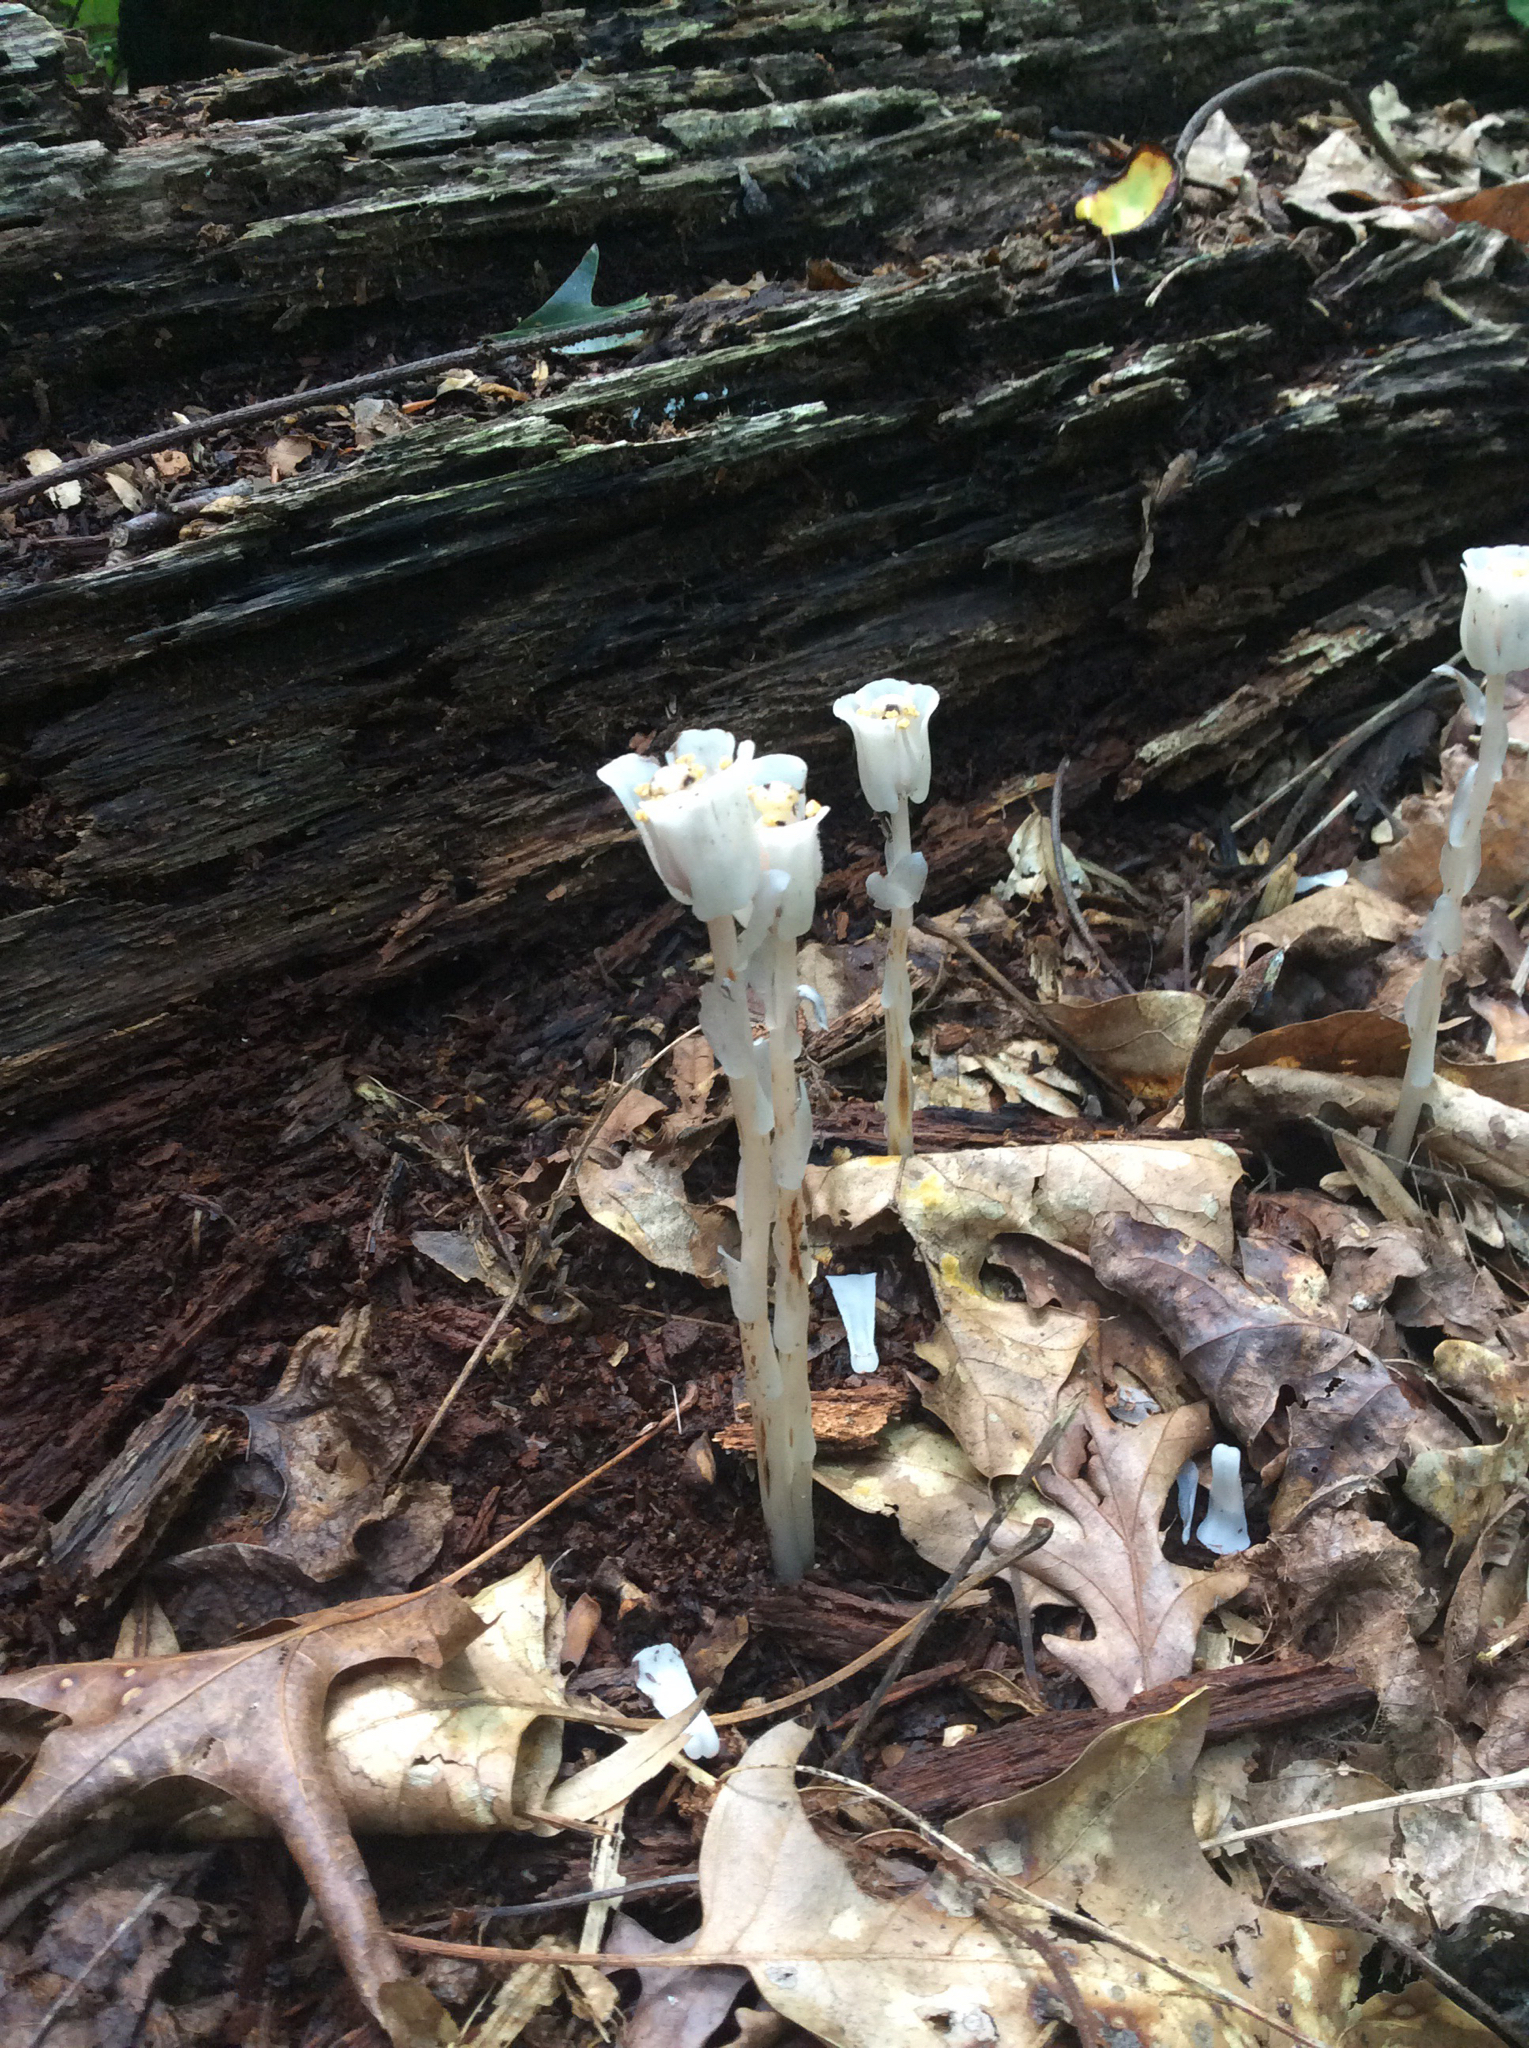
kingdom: Plantae
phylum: Tracheophyta
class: Magnoliopsida
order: Ericales
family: Ericaceae
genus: Monotropa
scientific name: Monotropa uniflora
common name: Convulsion root
